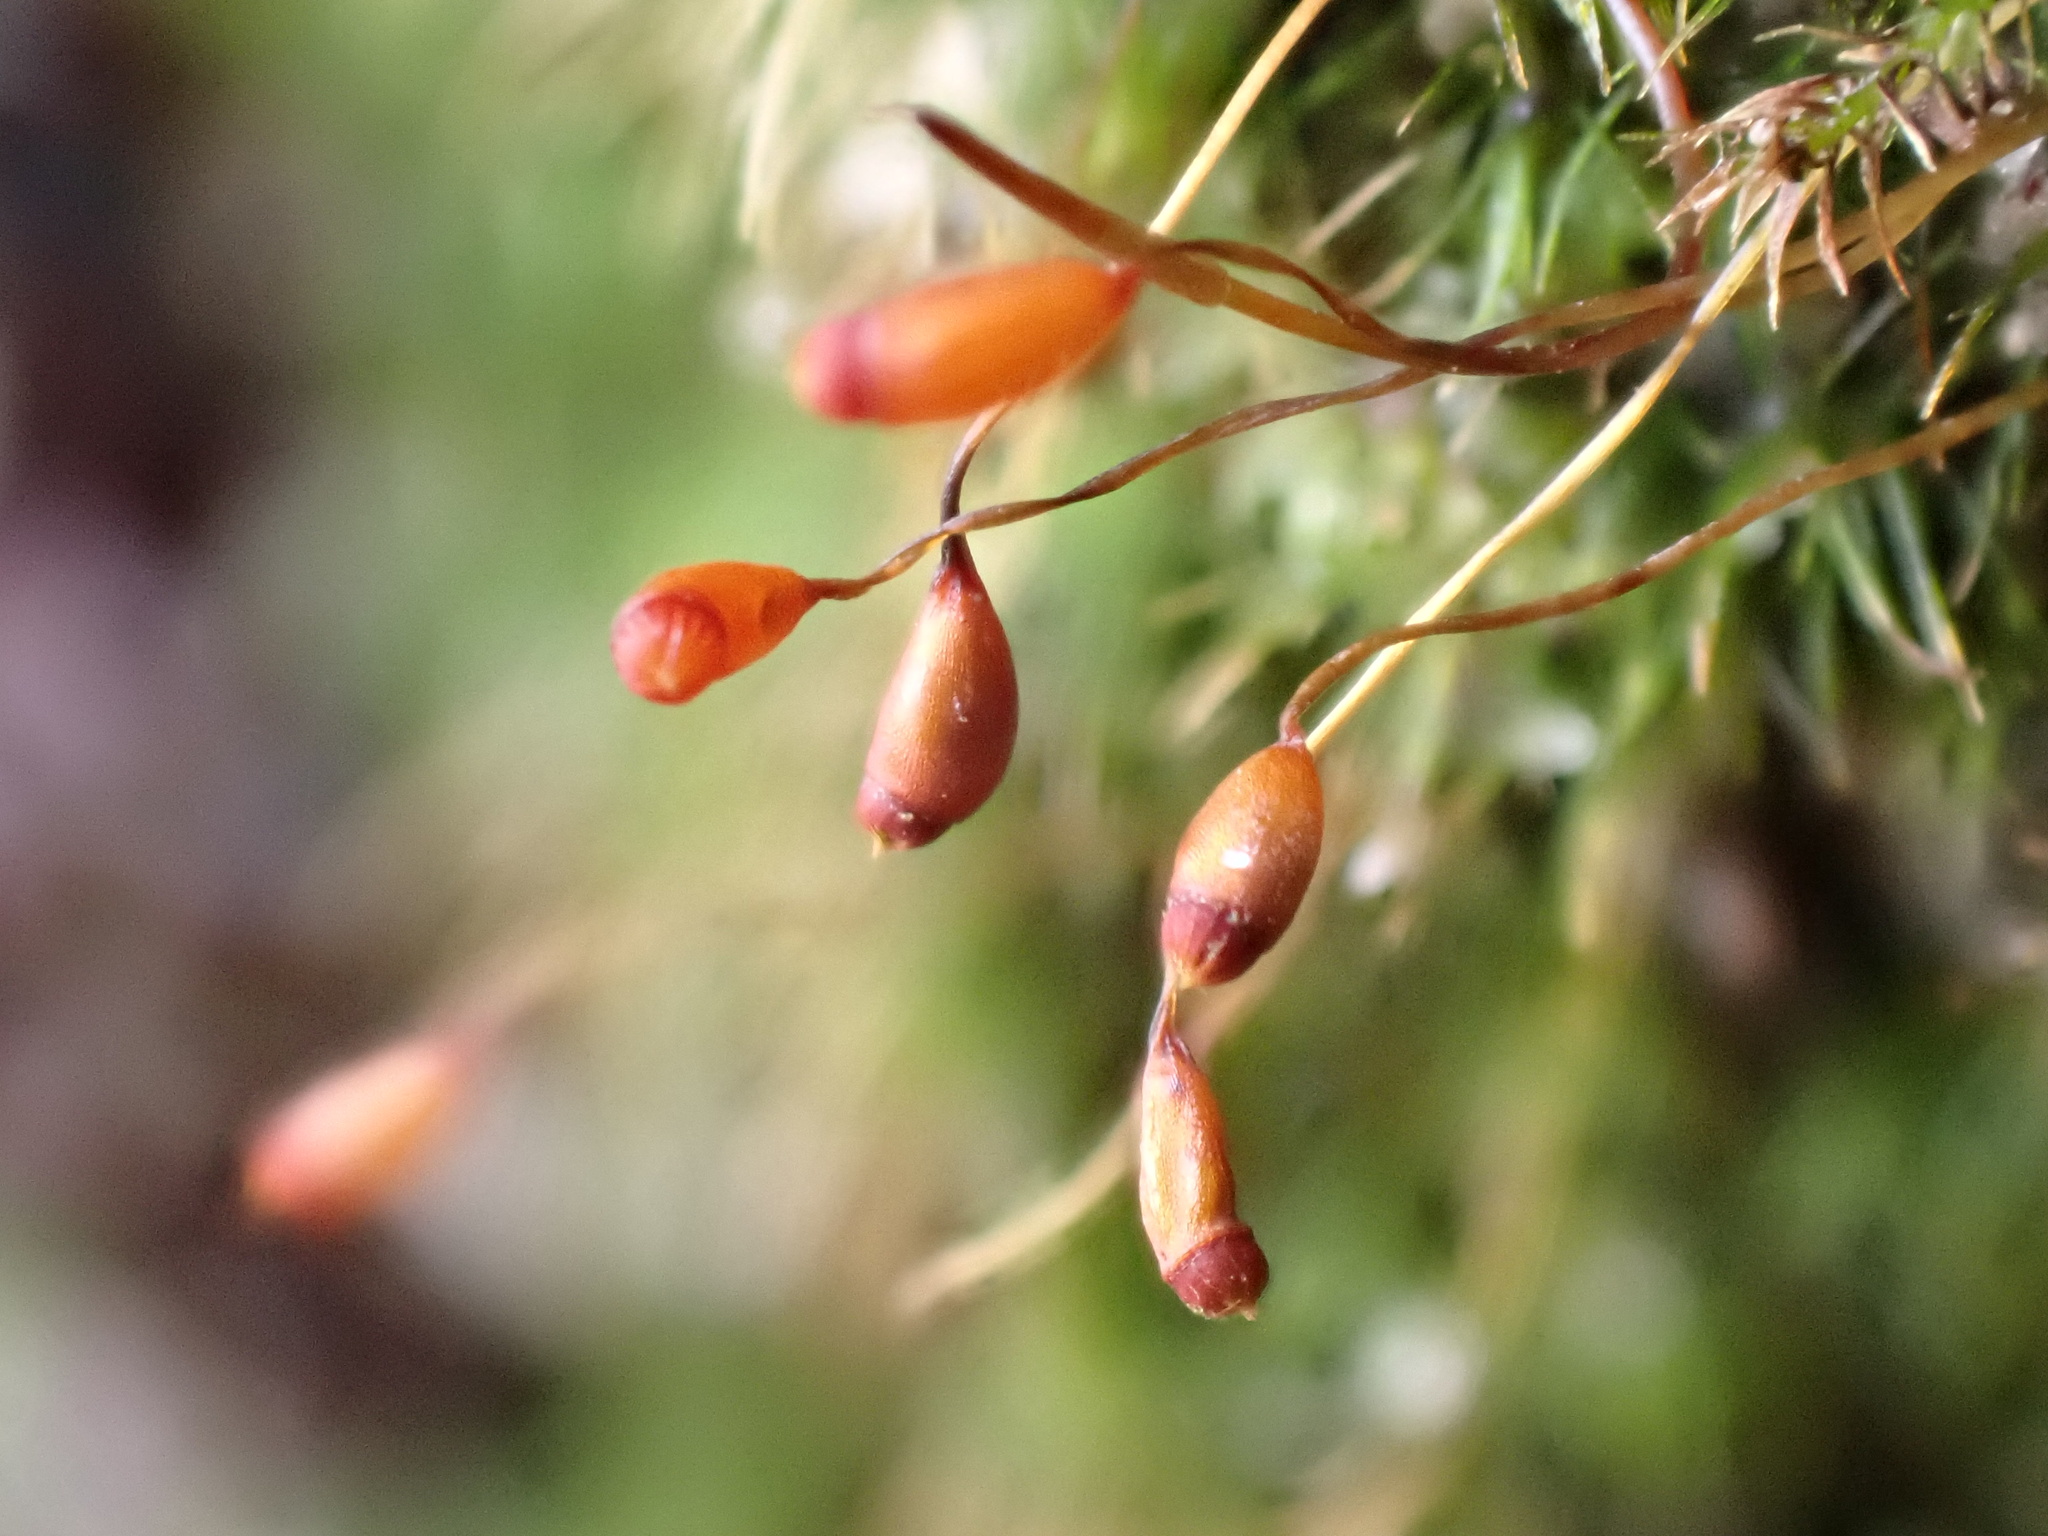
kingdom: Plantae
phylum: Bryophyta
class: Bryopsida
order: Dicranales
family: Dicranellaceae
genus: Dicranella
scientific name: Dicranella heteromalla
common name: Silky forklet moss
